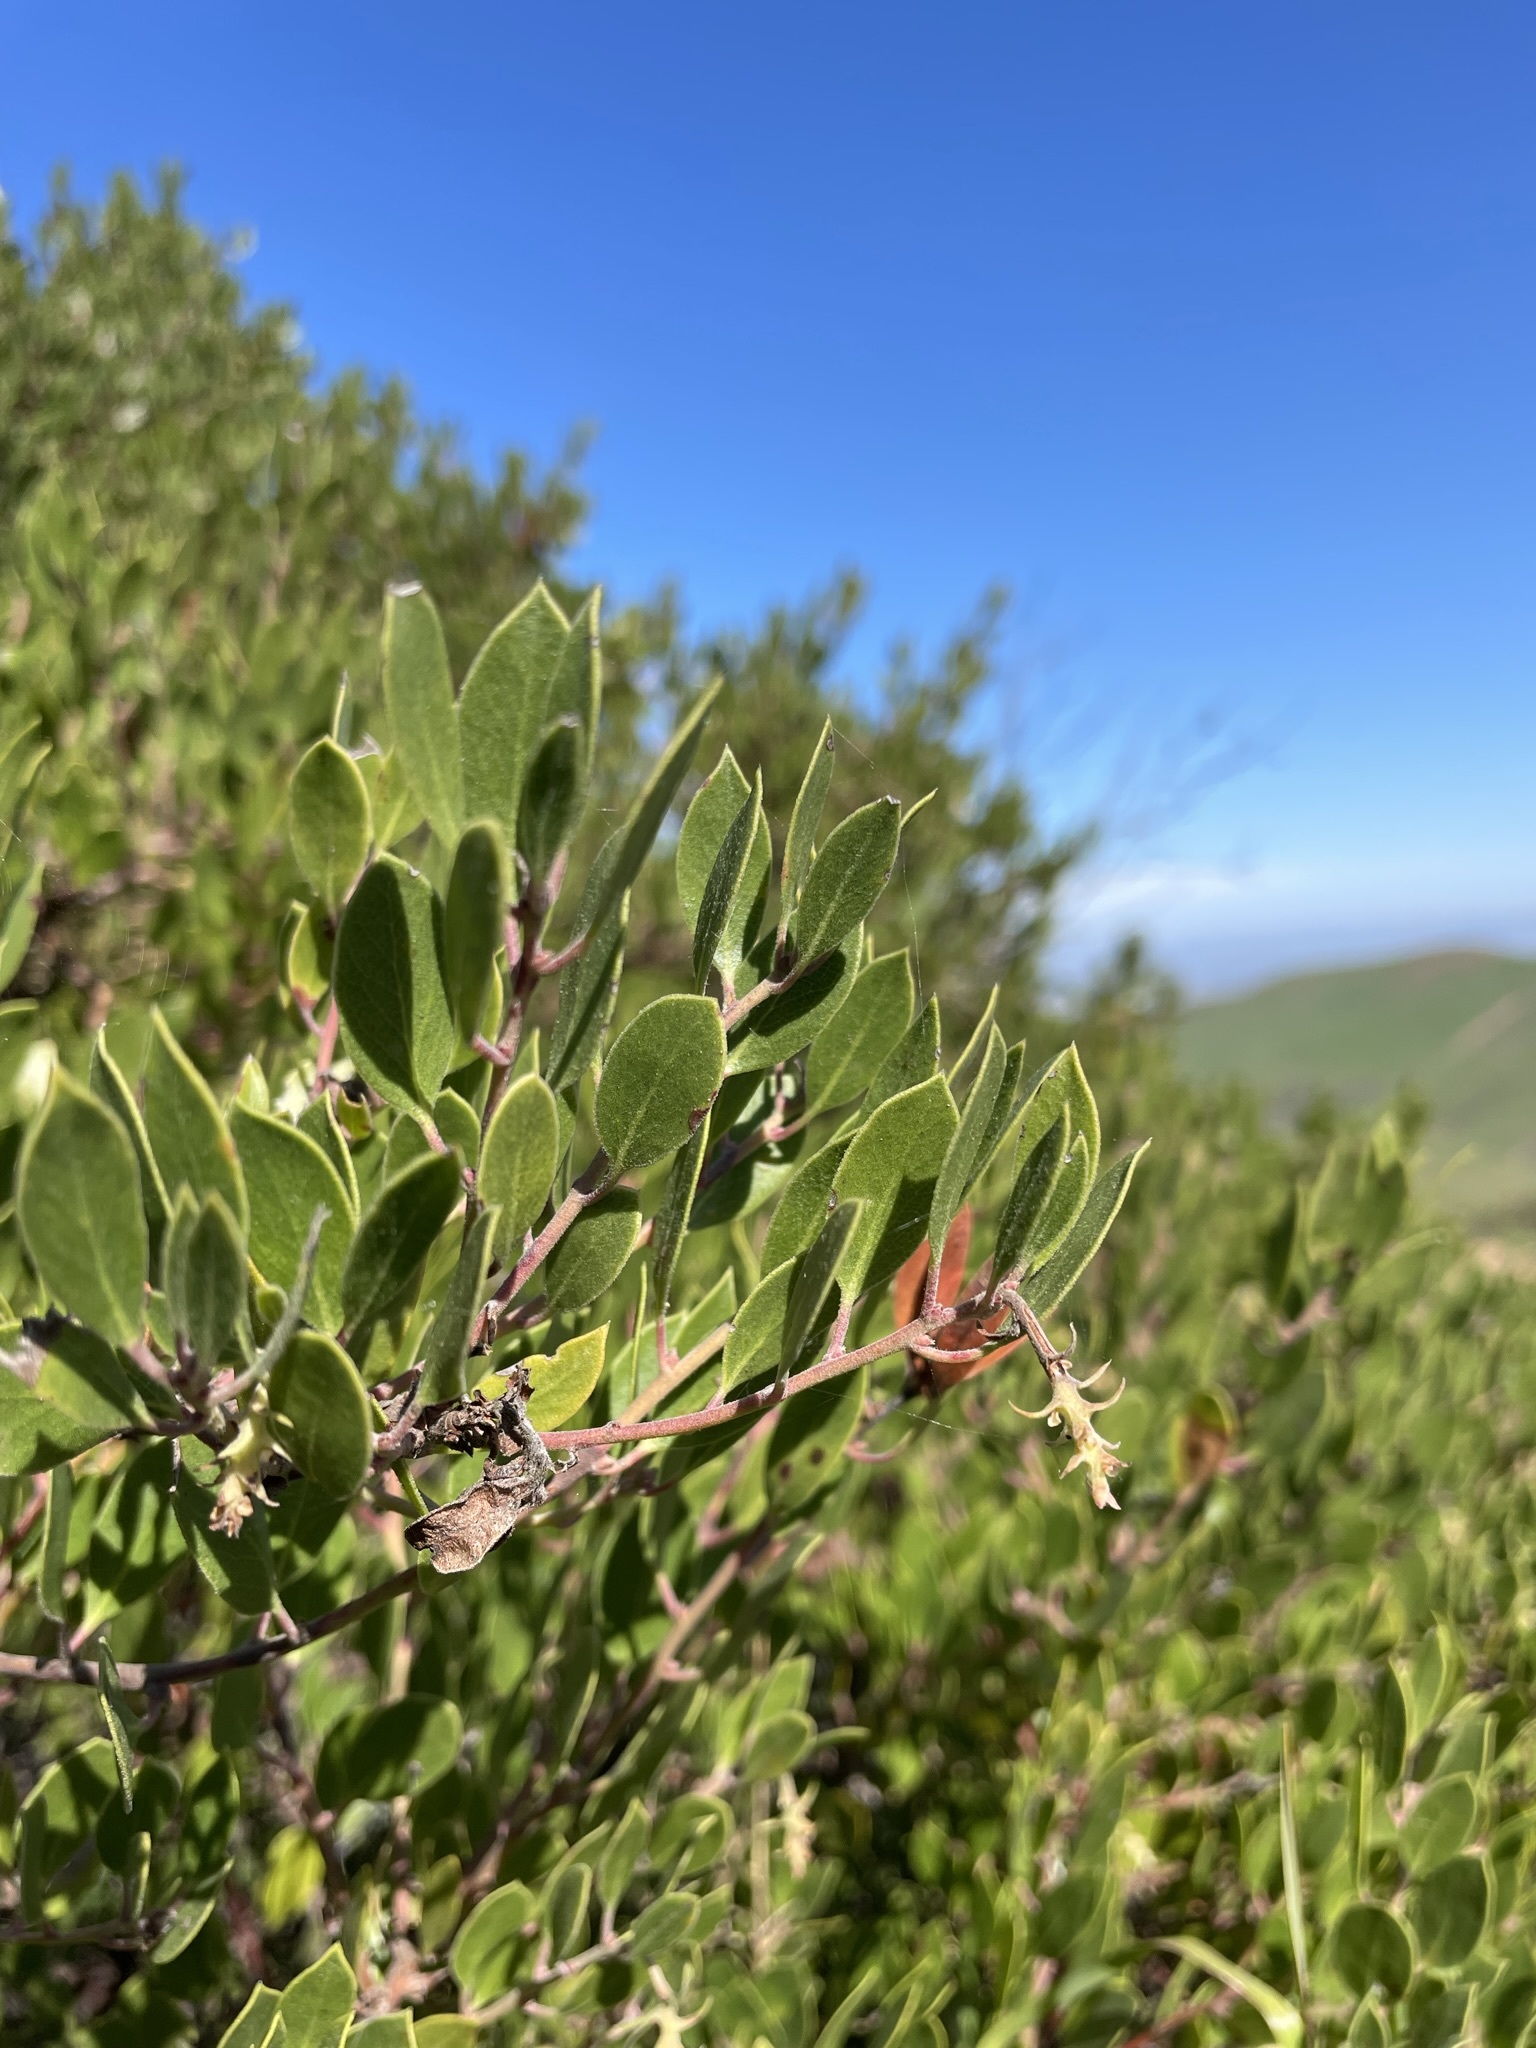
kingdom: Plantae
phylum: Tracheophyta
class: Magnoliopsida
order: Ericales
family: Ericaceae
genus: Arctostaphylos
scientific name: Arctostaphylos rudis
